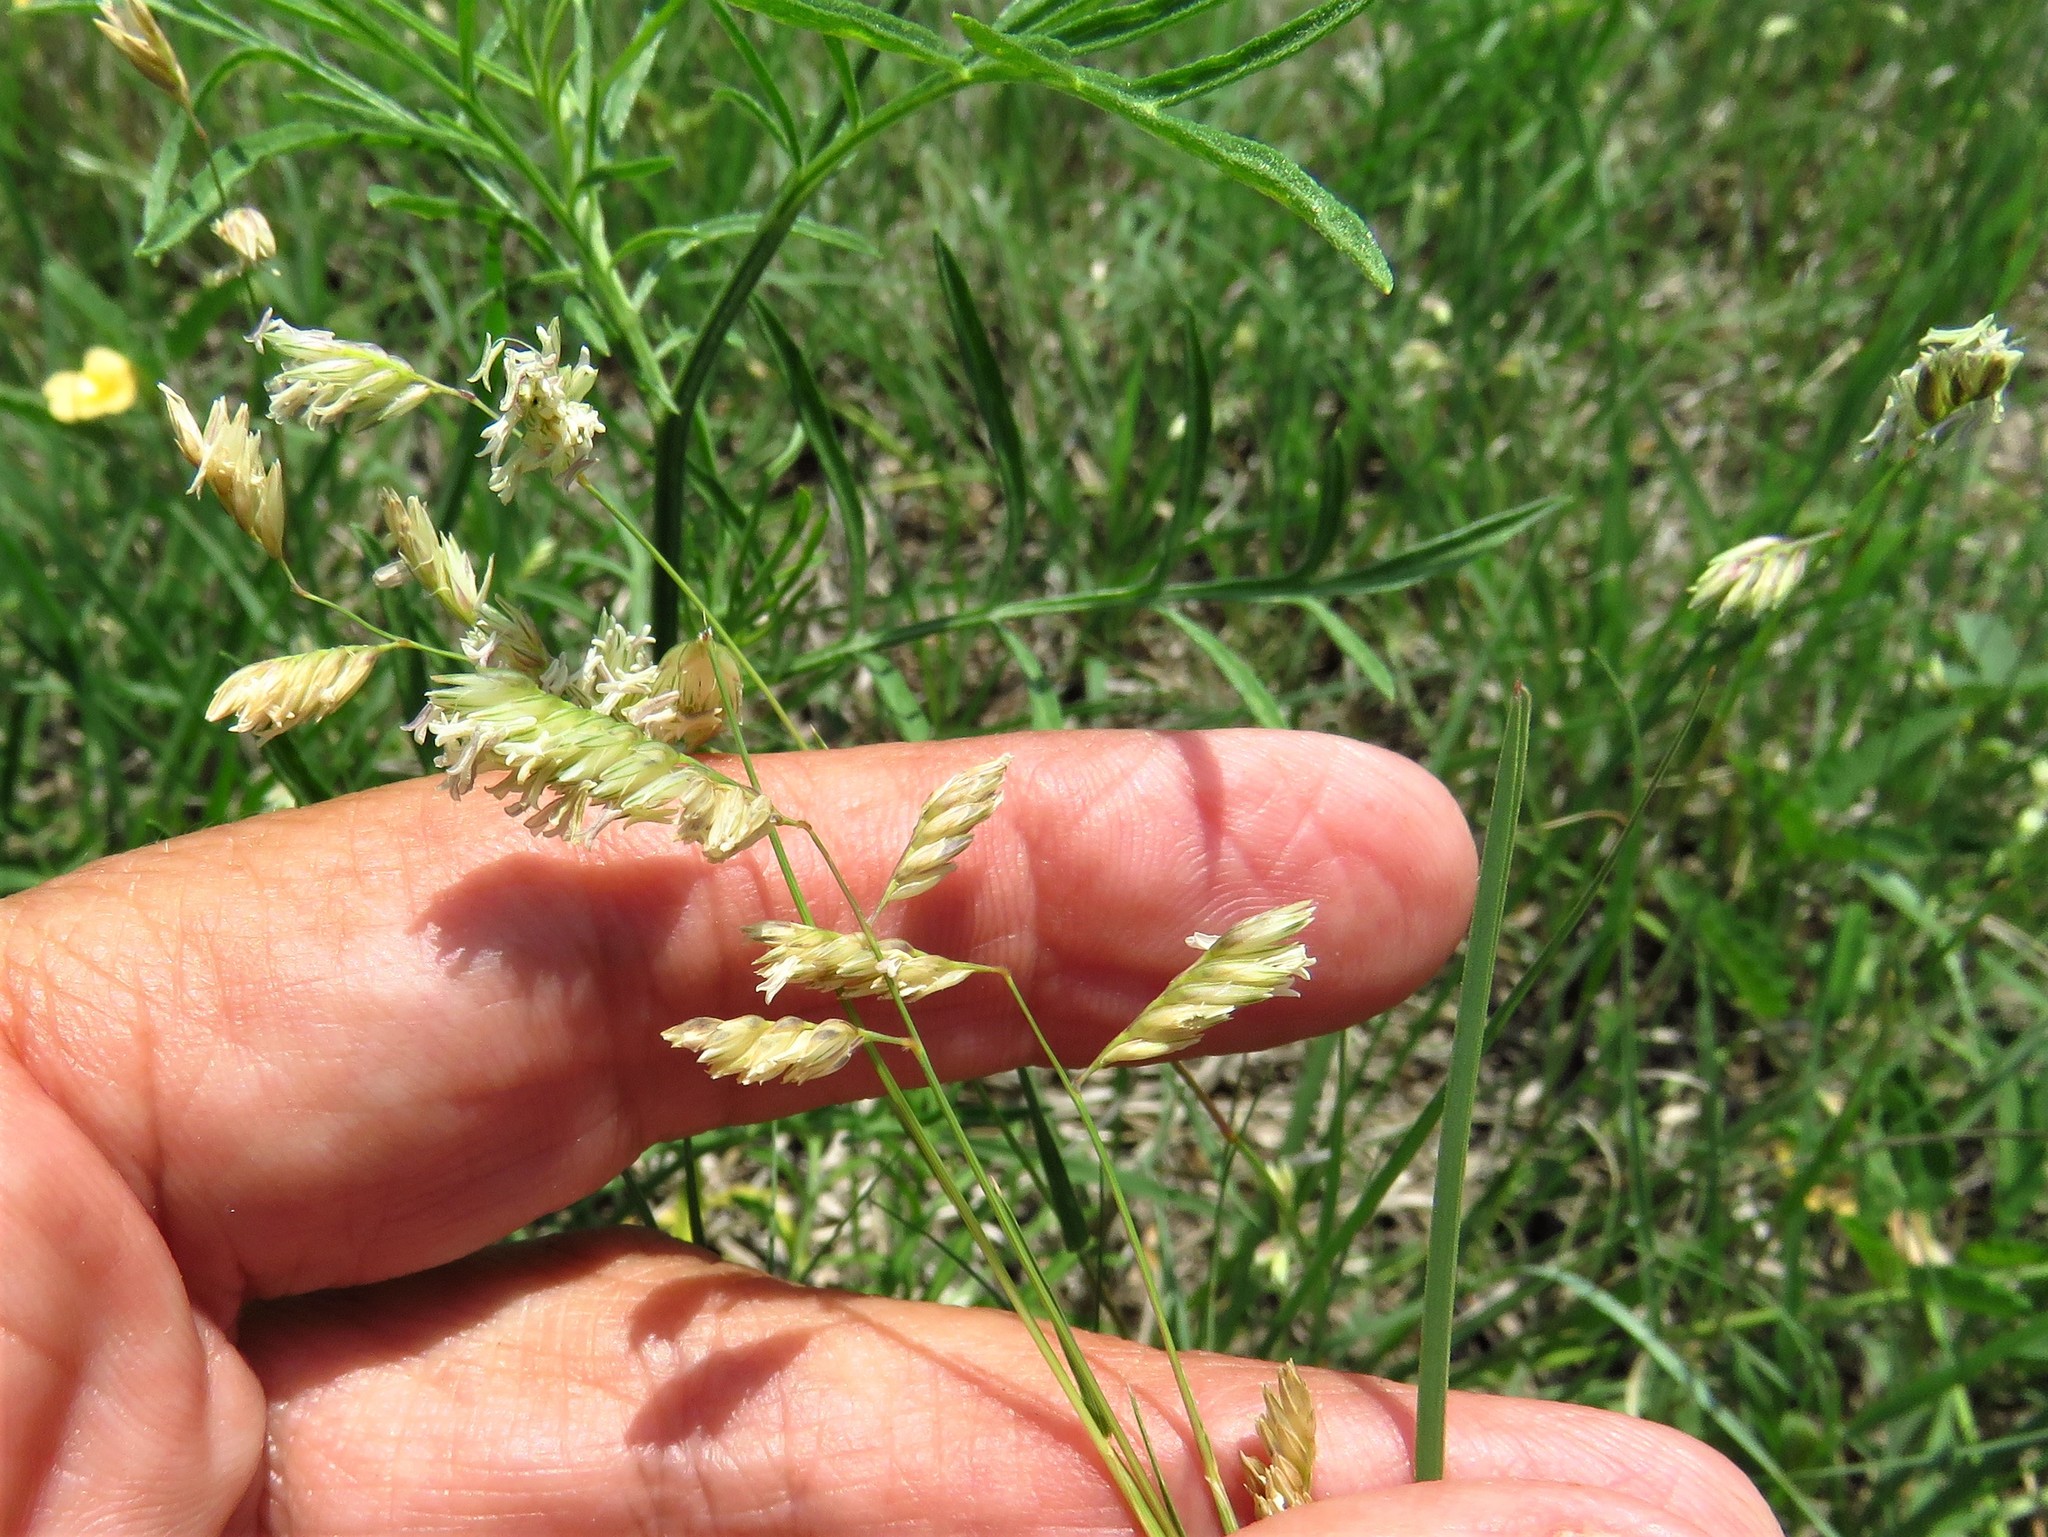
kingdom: Plantae
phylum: Tracheophyta
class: Liliopsida
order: Poales
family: Poaceae
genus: Bouteloua
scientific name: Bouteloua dactyloides
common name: Buffalo grass
